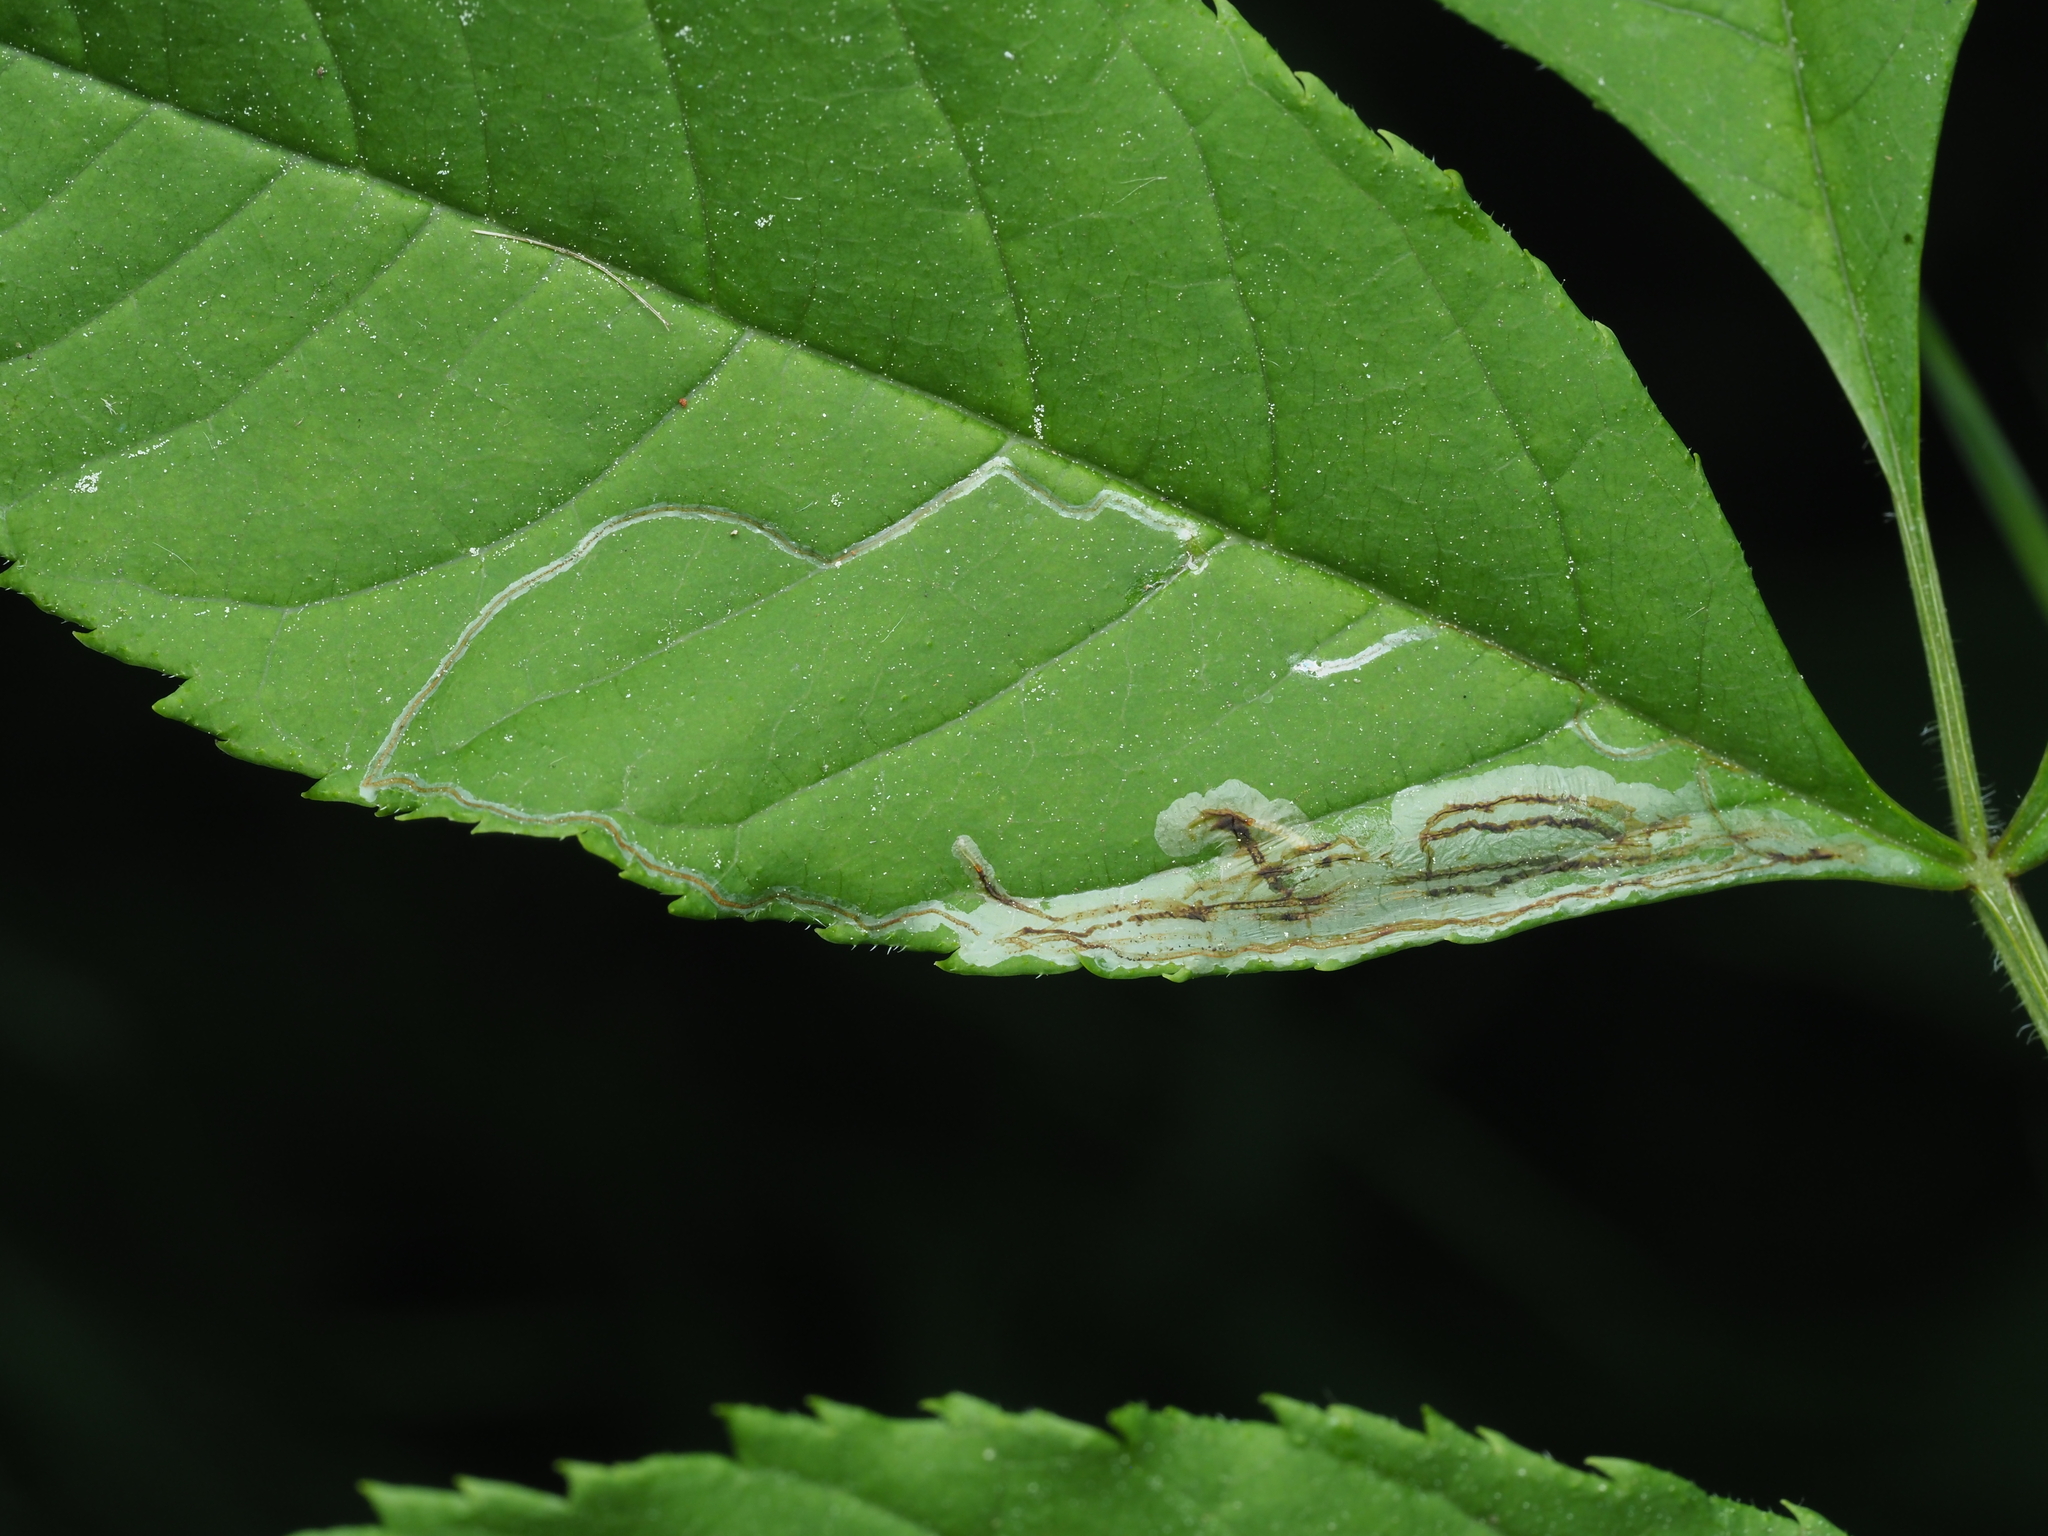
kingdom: Animalia
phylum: Arthropoda
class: Insecta
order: Lepidoptera
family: Gracillariidae
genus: Caloptilia
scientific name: Caloptilia cuculipennella
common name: Feathered slender
